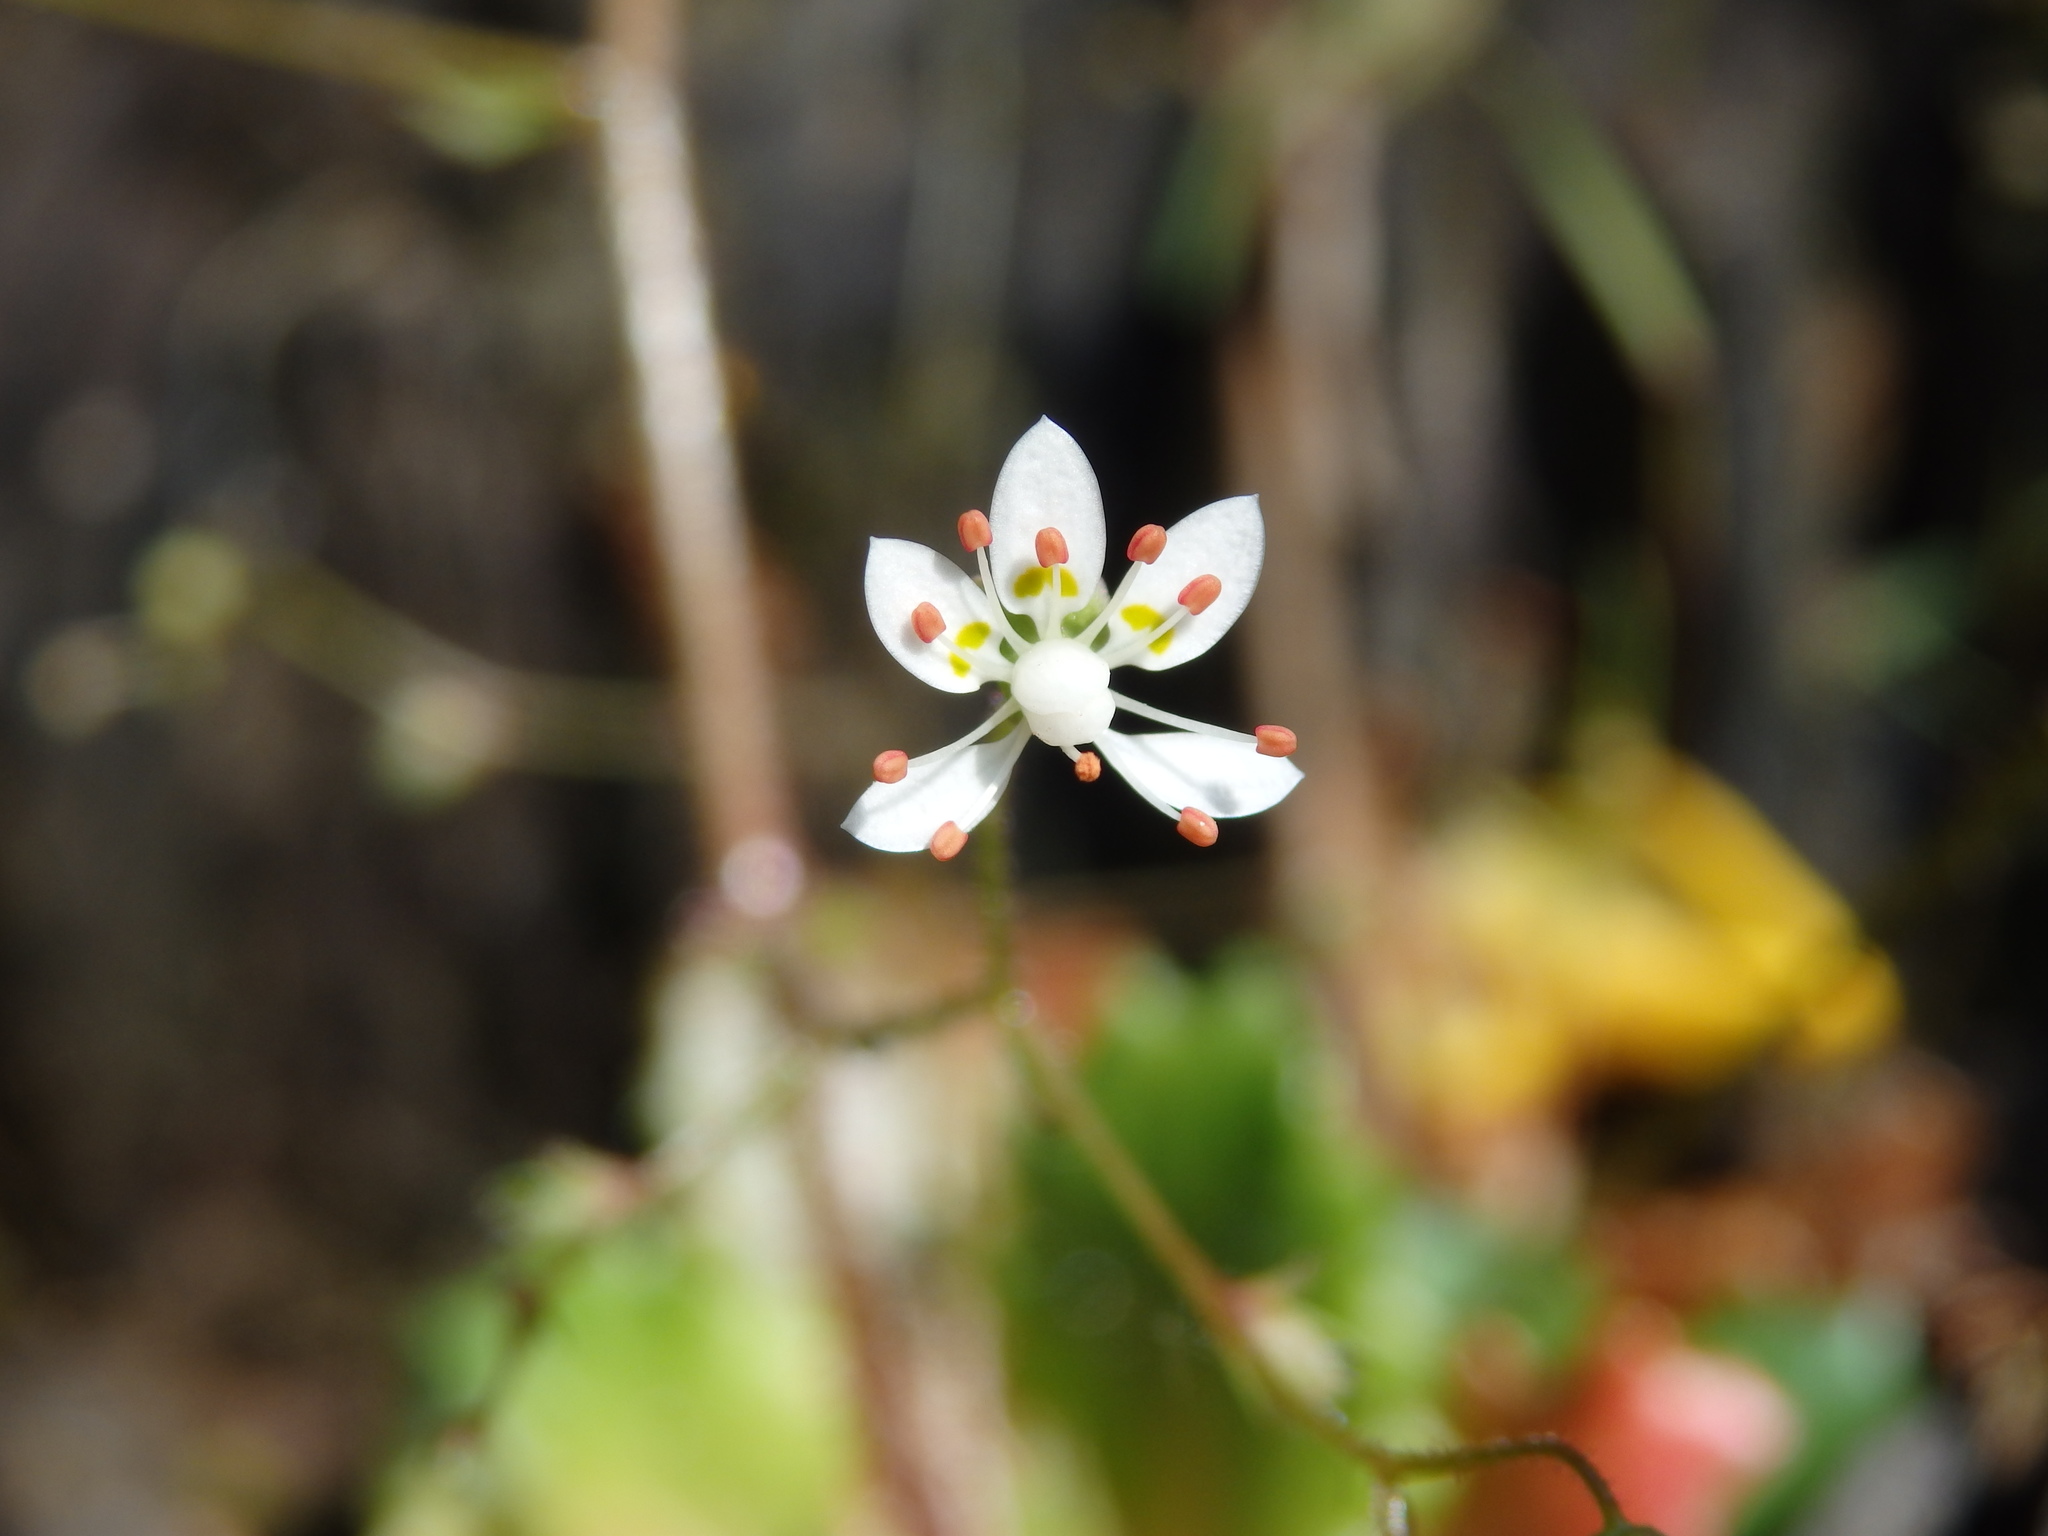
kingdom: Plantae
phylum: Tracheophyta
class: Magnoliopsida
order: Saxifragales
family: Saxifragaceae
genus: Micranthes
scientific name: Micranthes clusii
